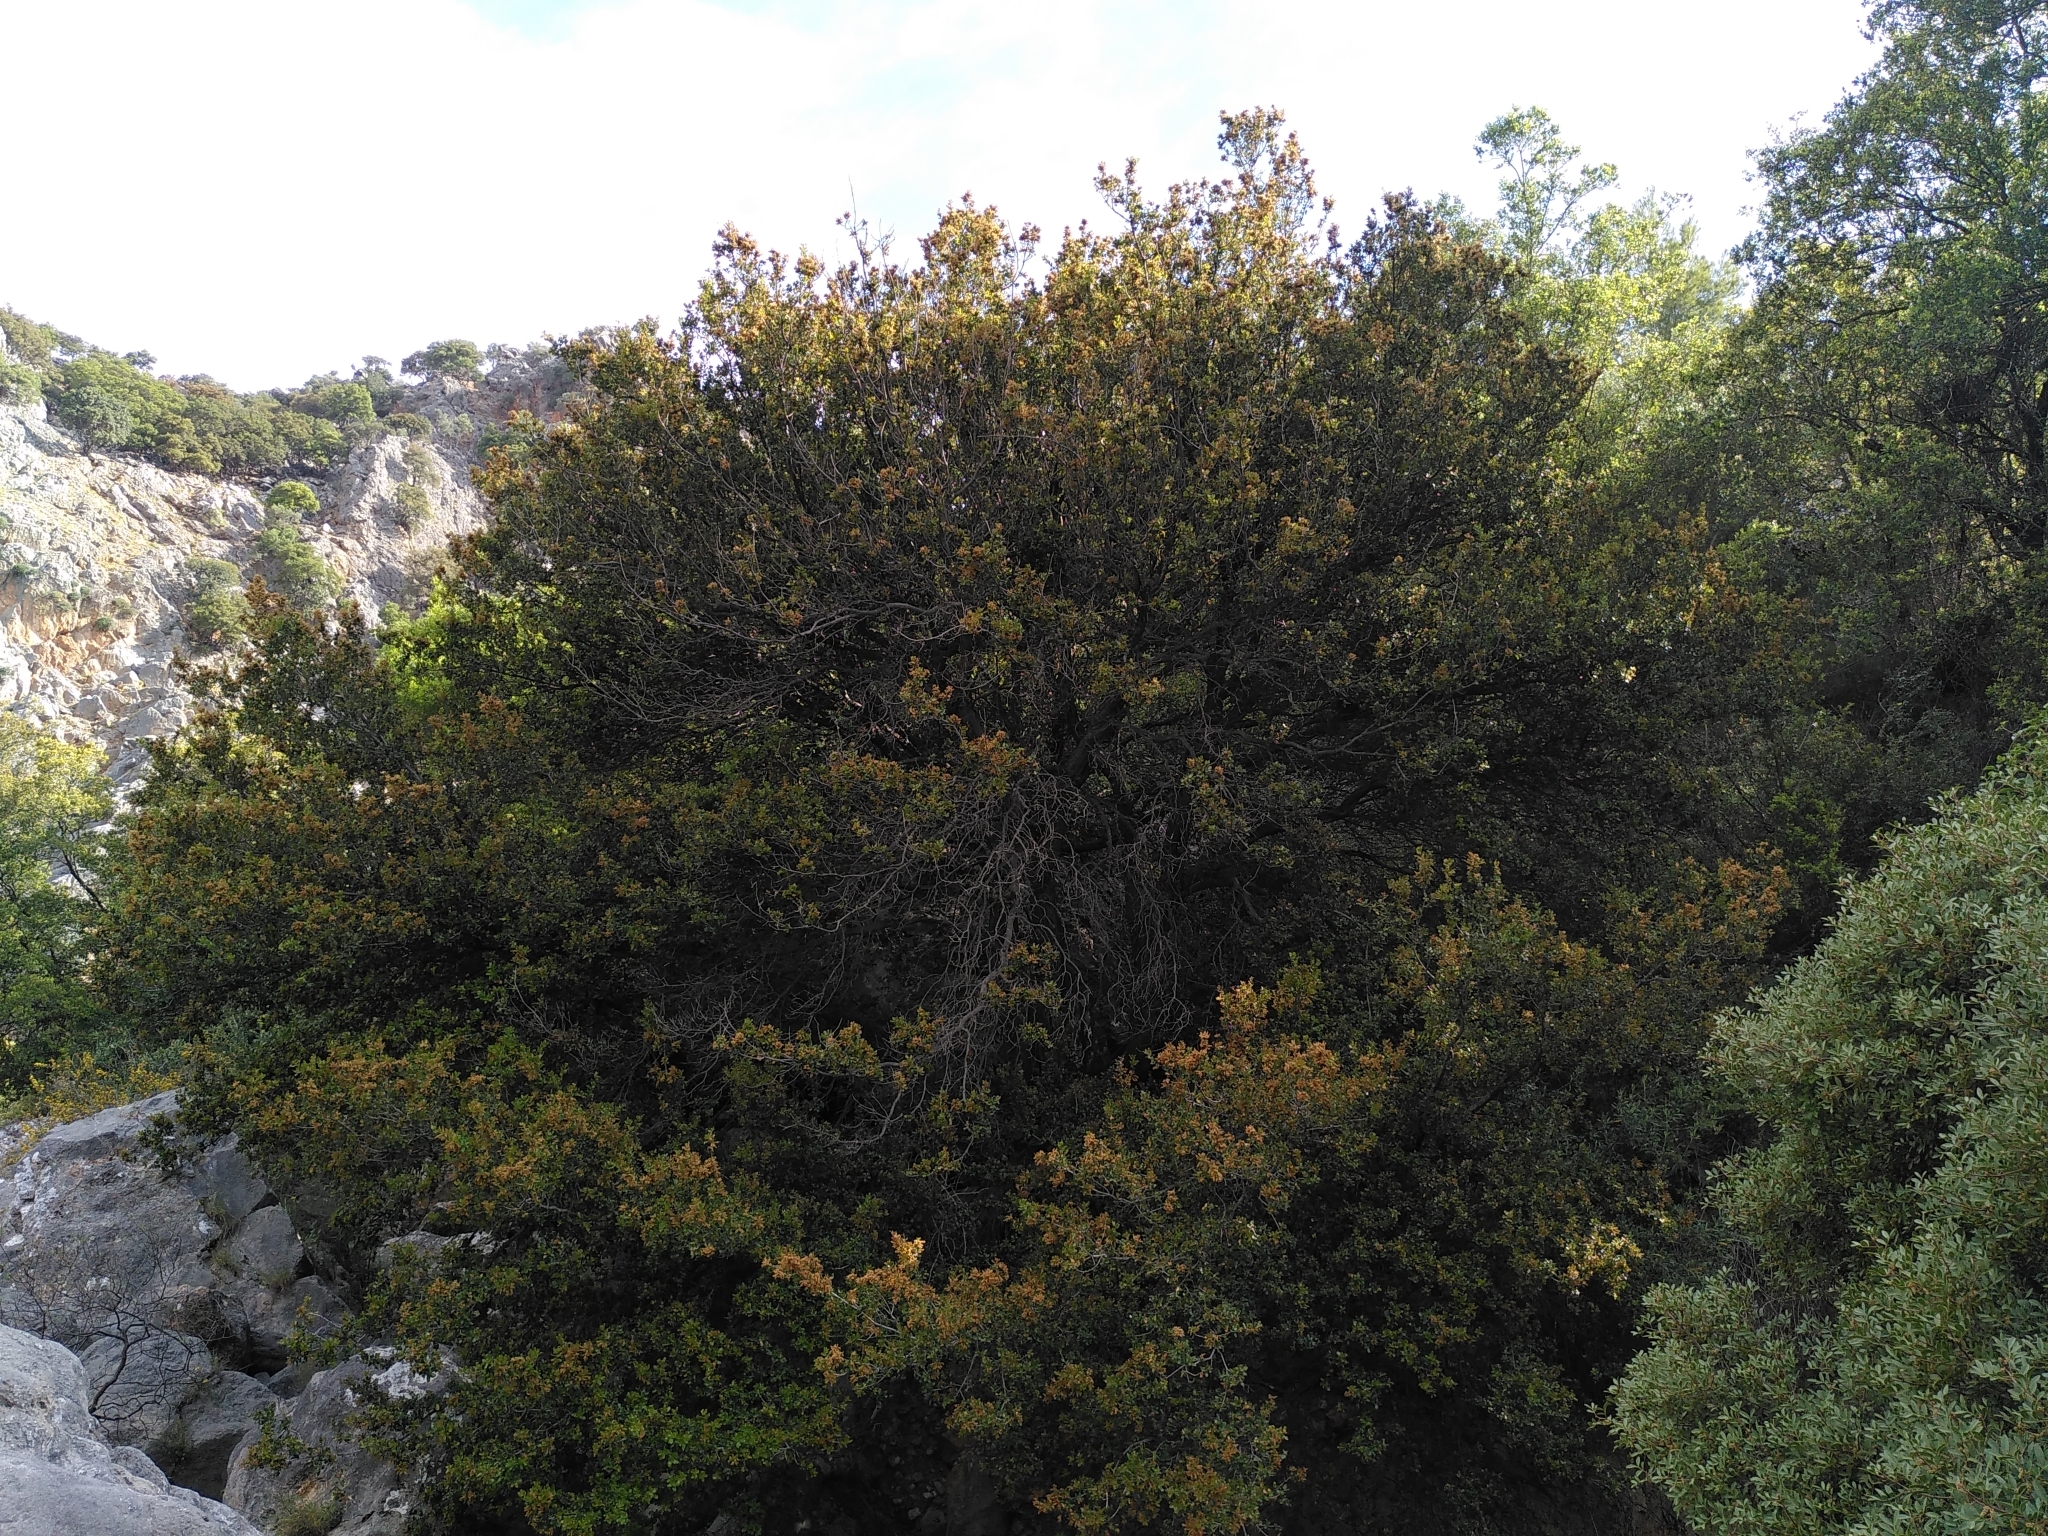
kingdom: Plantae
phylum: Tracheophyta
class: Magnoliopsida
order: Fagales
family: Fagaceae
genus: Quercus
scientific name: Quercus coccifera
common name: Kermes oak
